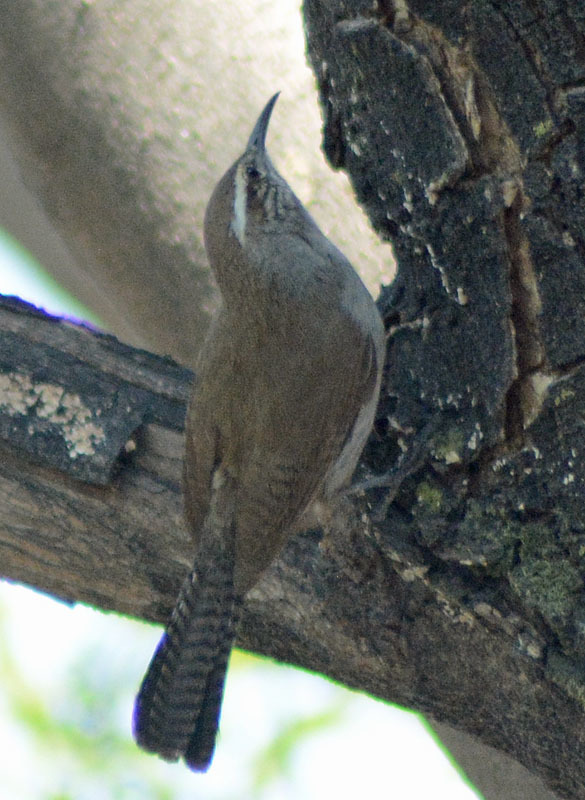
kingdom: Animalia
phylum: Chordata
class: Aves
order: Passeriformes
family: Troglodytidae
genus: Thryomanes
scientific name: Thryomanes bewickii
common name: Bewick's wren
